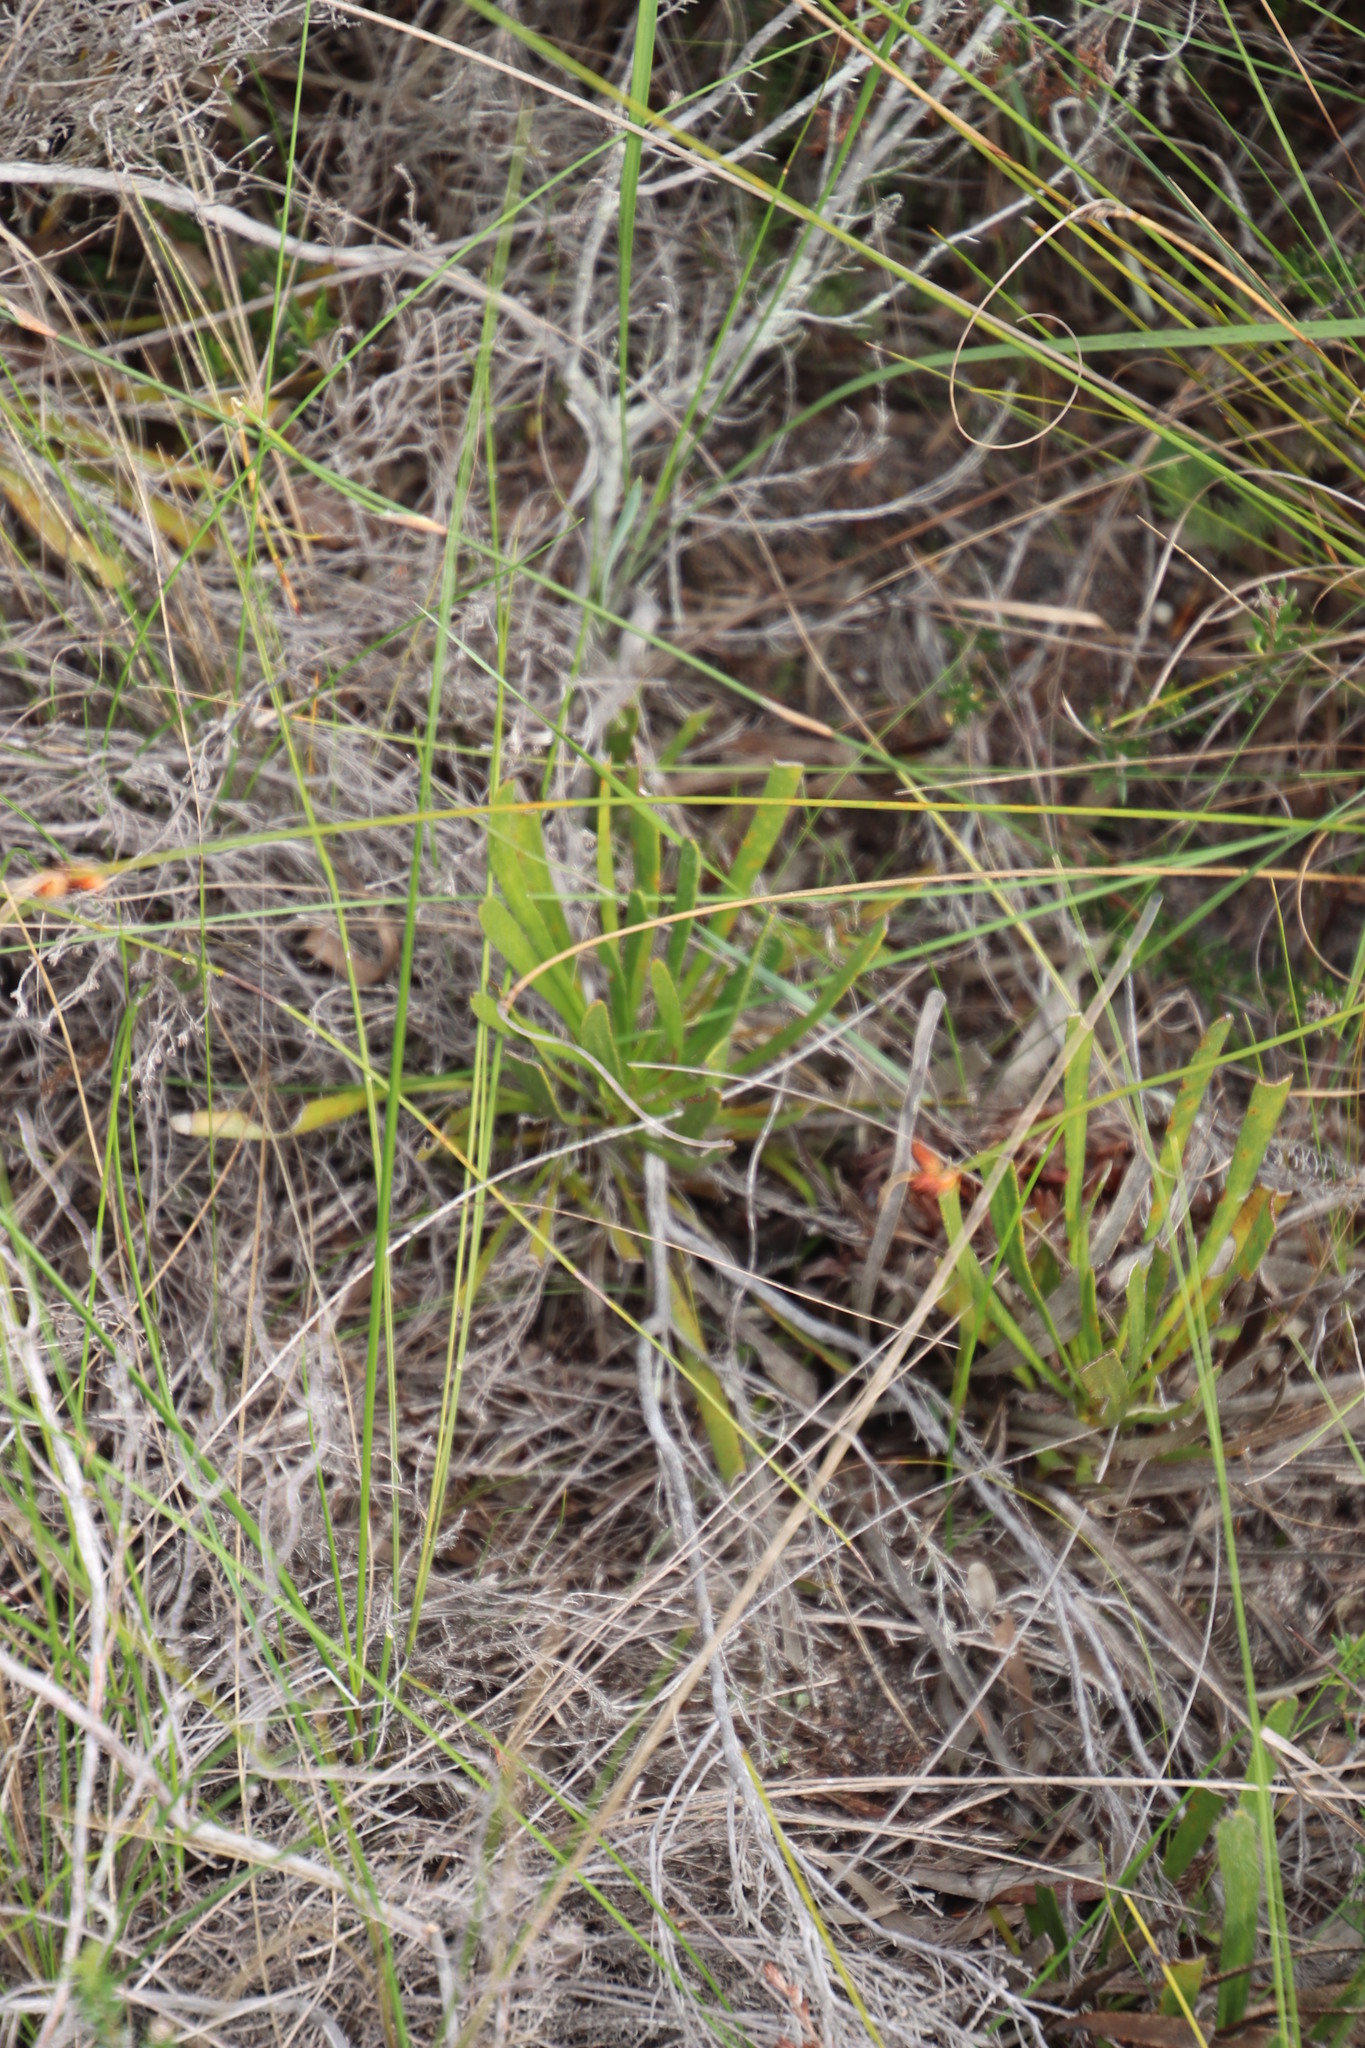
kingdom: Plantae
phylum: Tracheophyta
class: Magnoliopsida
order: Proteales
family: Proteaceae
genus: Protea
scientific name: Protea scabra
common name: Sandpaper-leaf sugarbush
